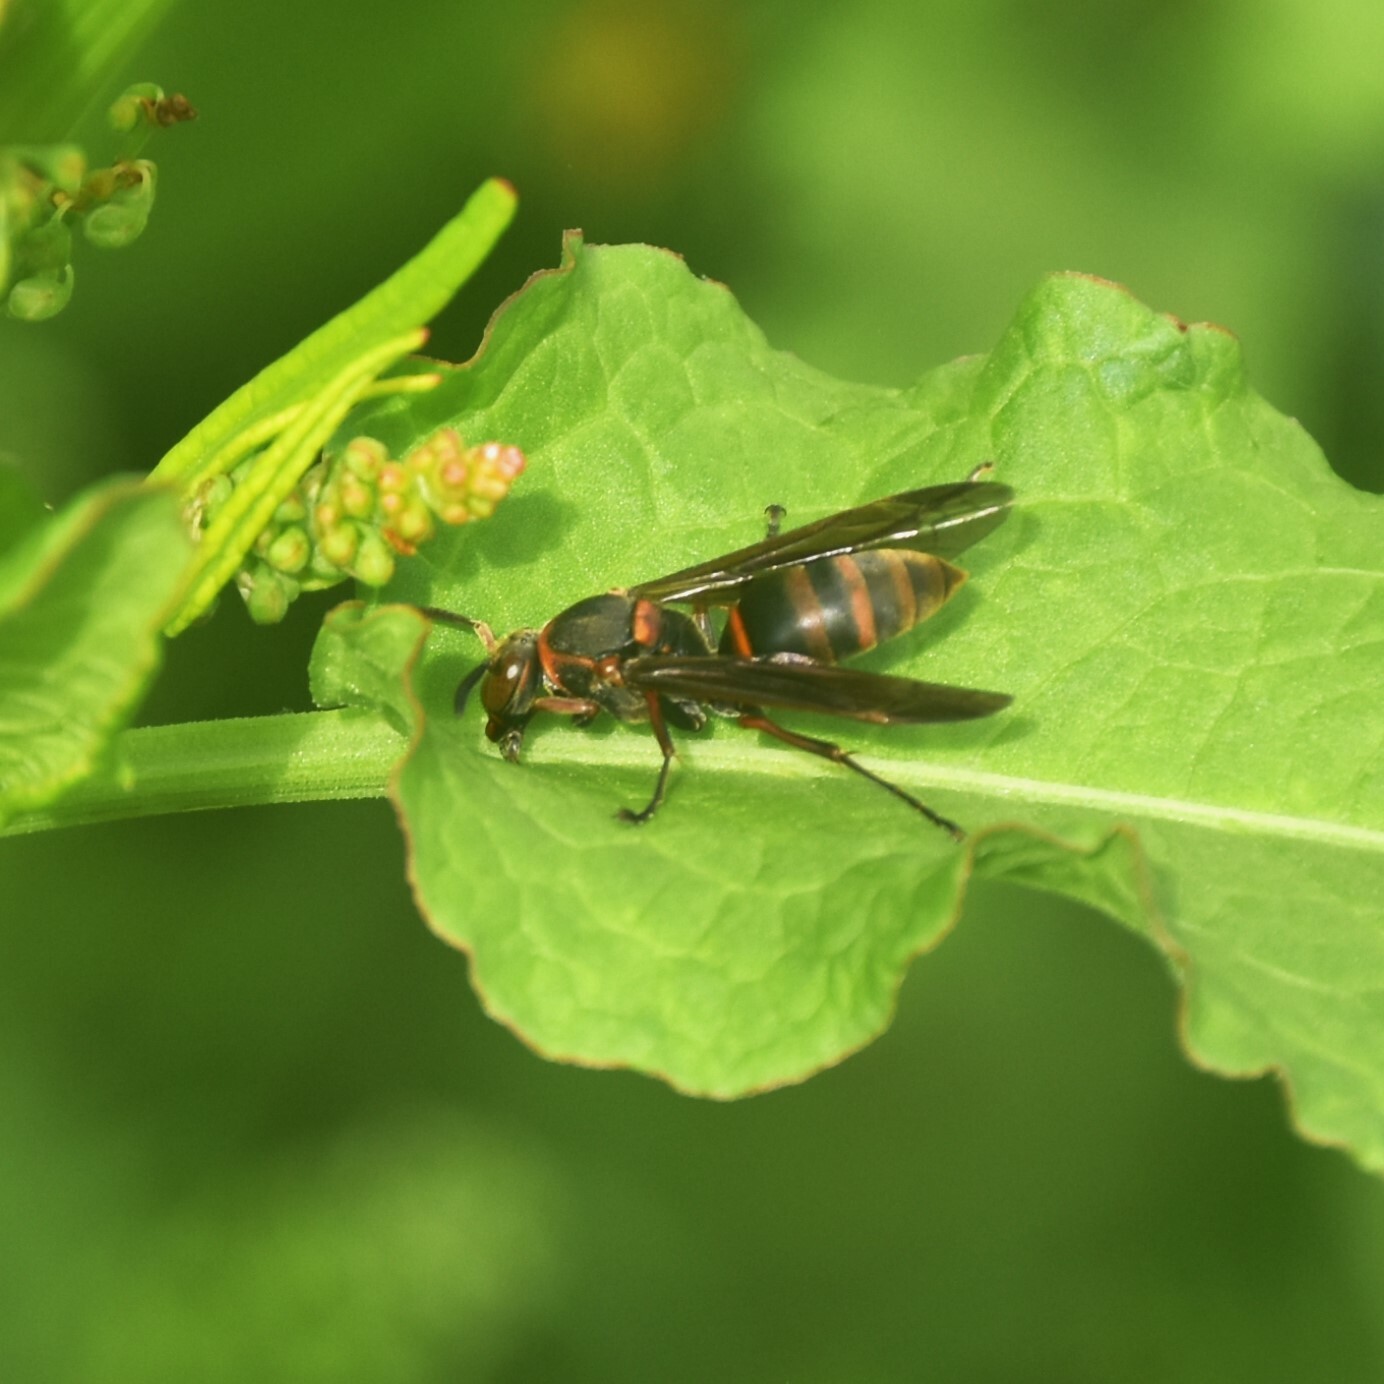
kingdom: Animalia
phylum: Arthropoda
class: Insecta
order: Hymenoptera
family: Eumenidae
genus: Polistes
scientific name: Polistes adustus
